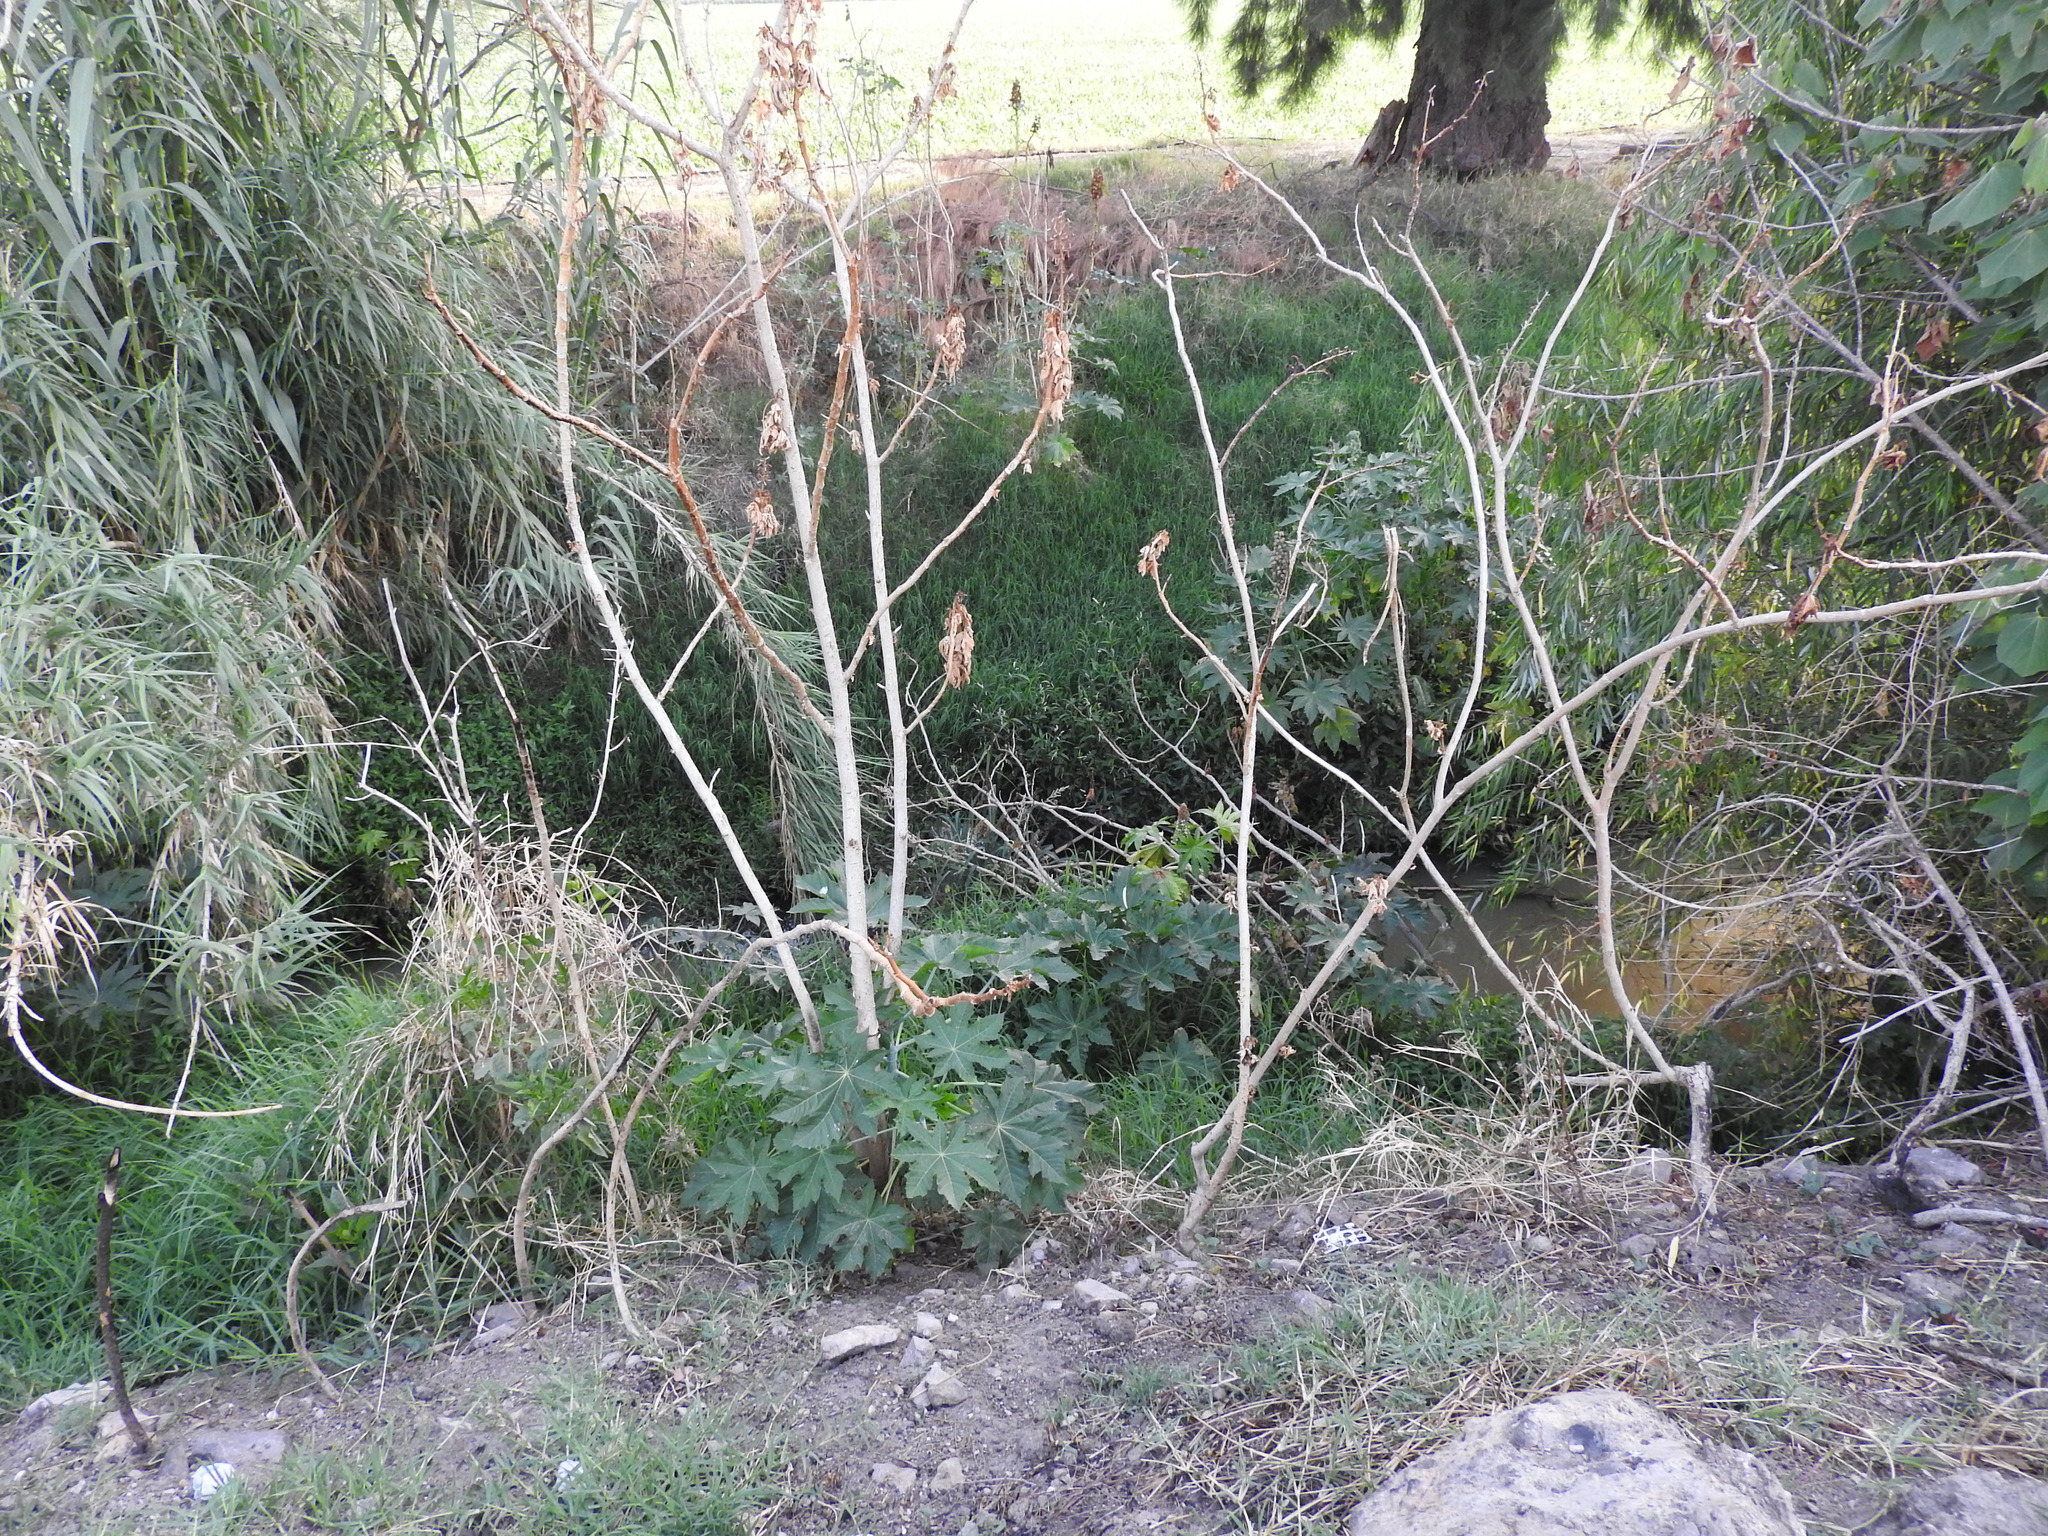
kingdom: Plantae
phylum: Tracheophyta
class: Magnoliopsida
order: Malpighiales
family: Euphorbiaceae
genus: Ricinus
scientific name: Ricinus communis
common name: Castor-oil-plant
